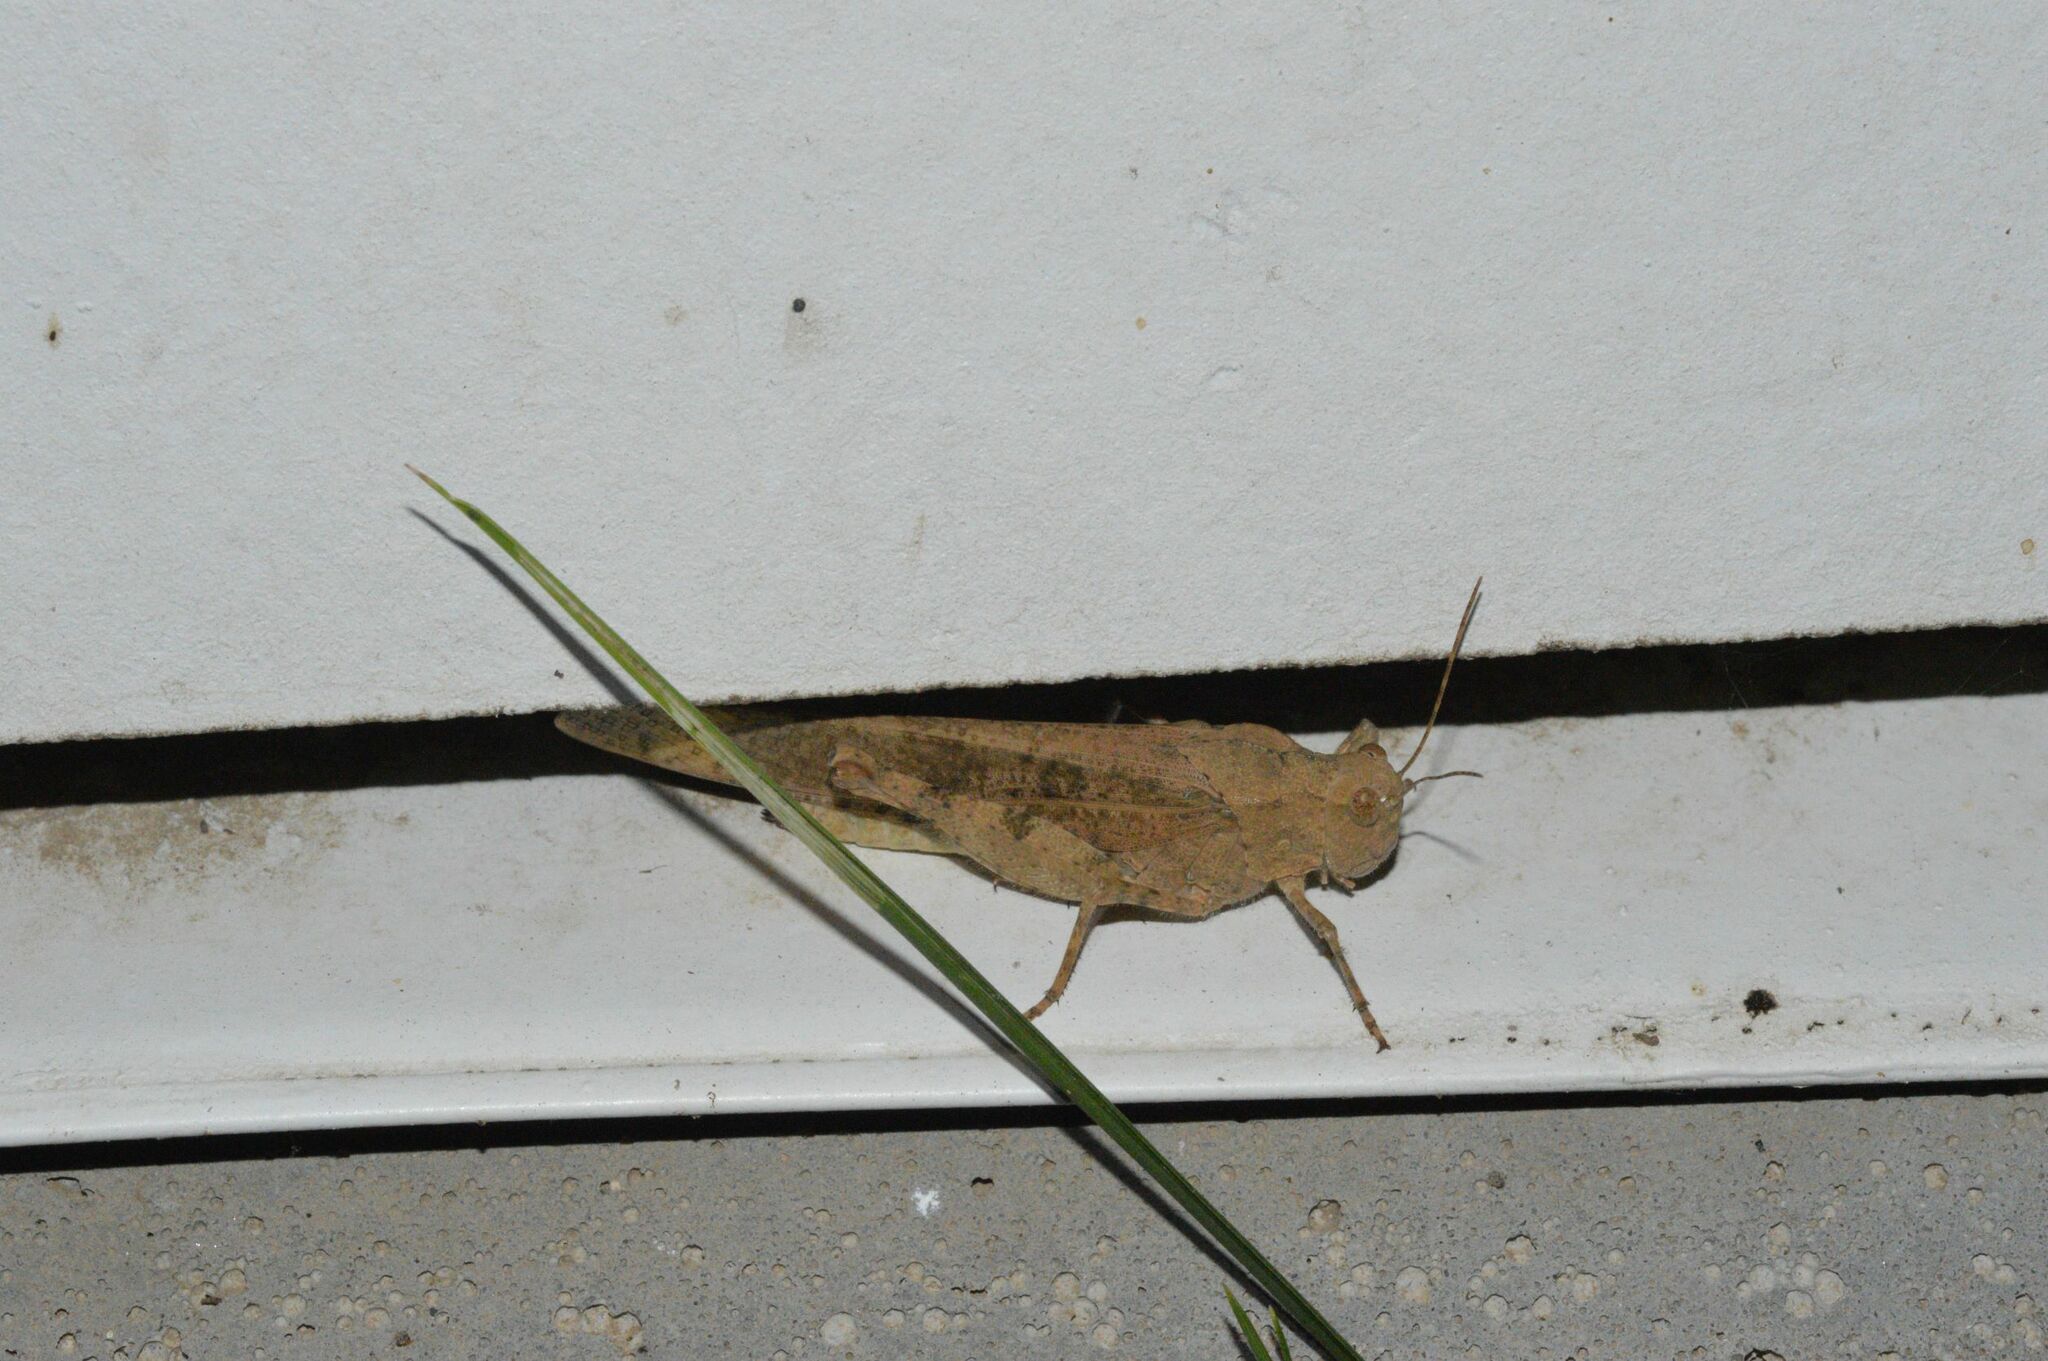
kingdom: Animalia
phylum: Arthropoda
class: Insecta
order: Orthoptera
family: Acrididae
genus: Dissosteira
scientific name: Dissosteira carolina
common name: Carolina grasshopper
